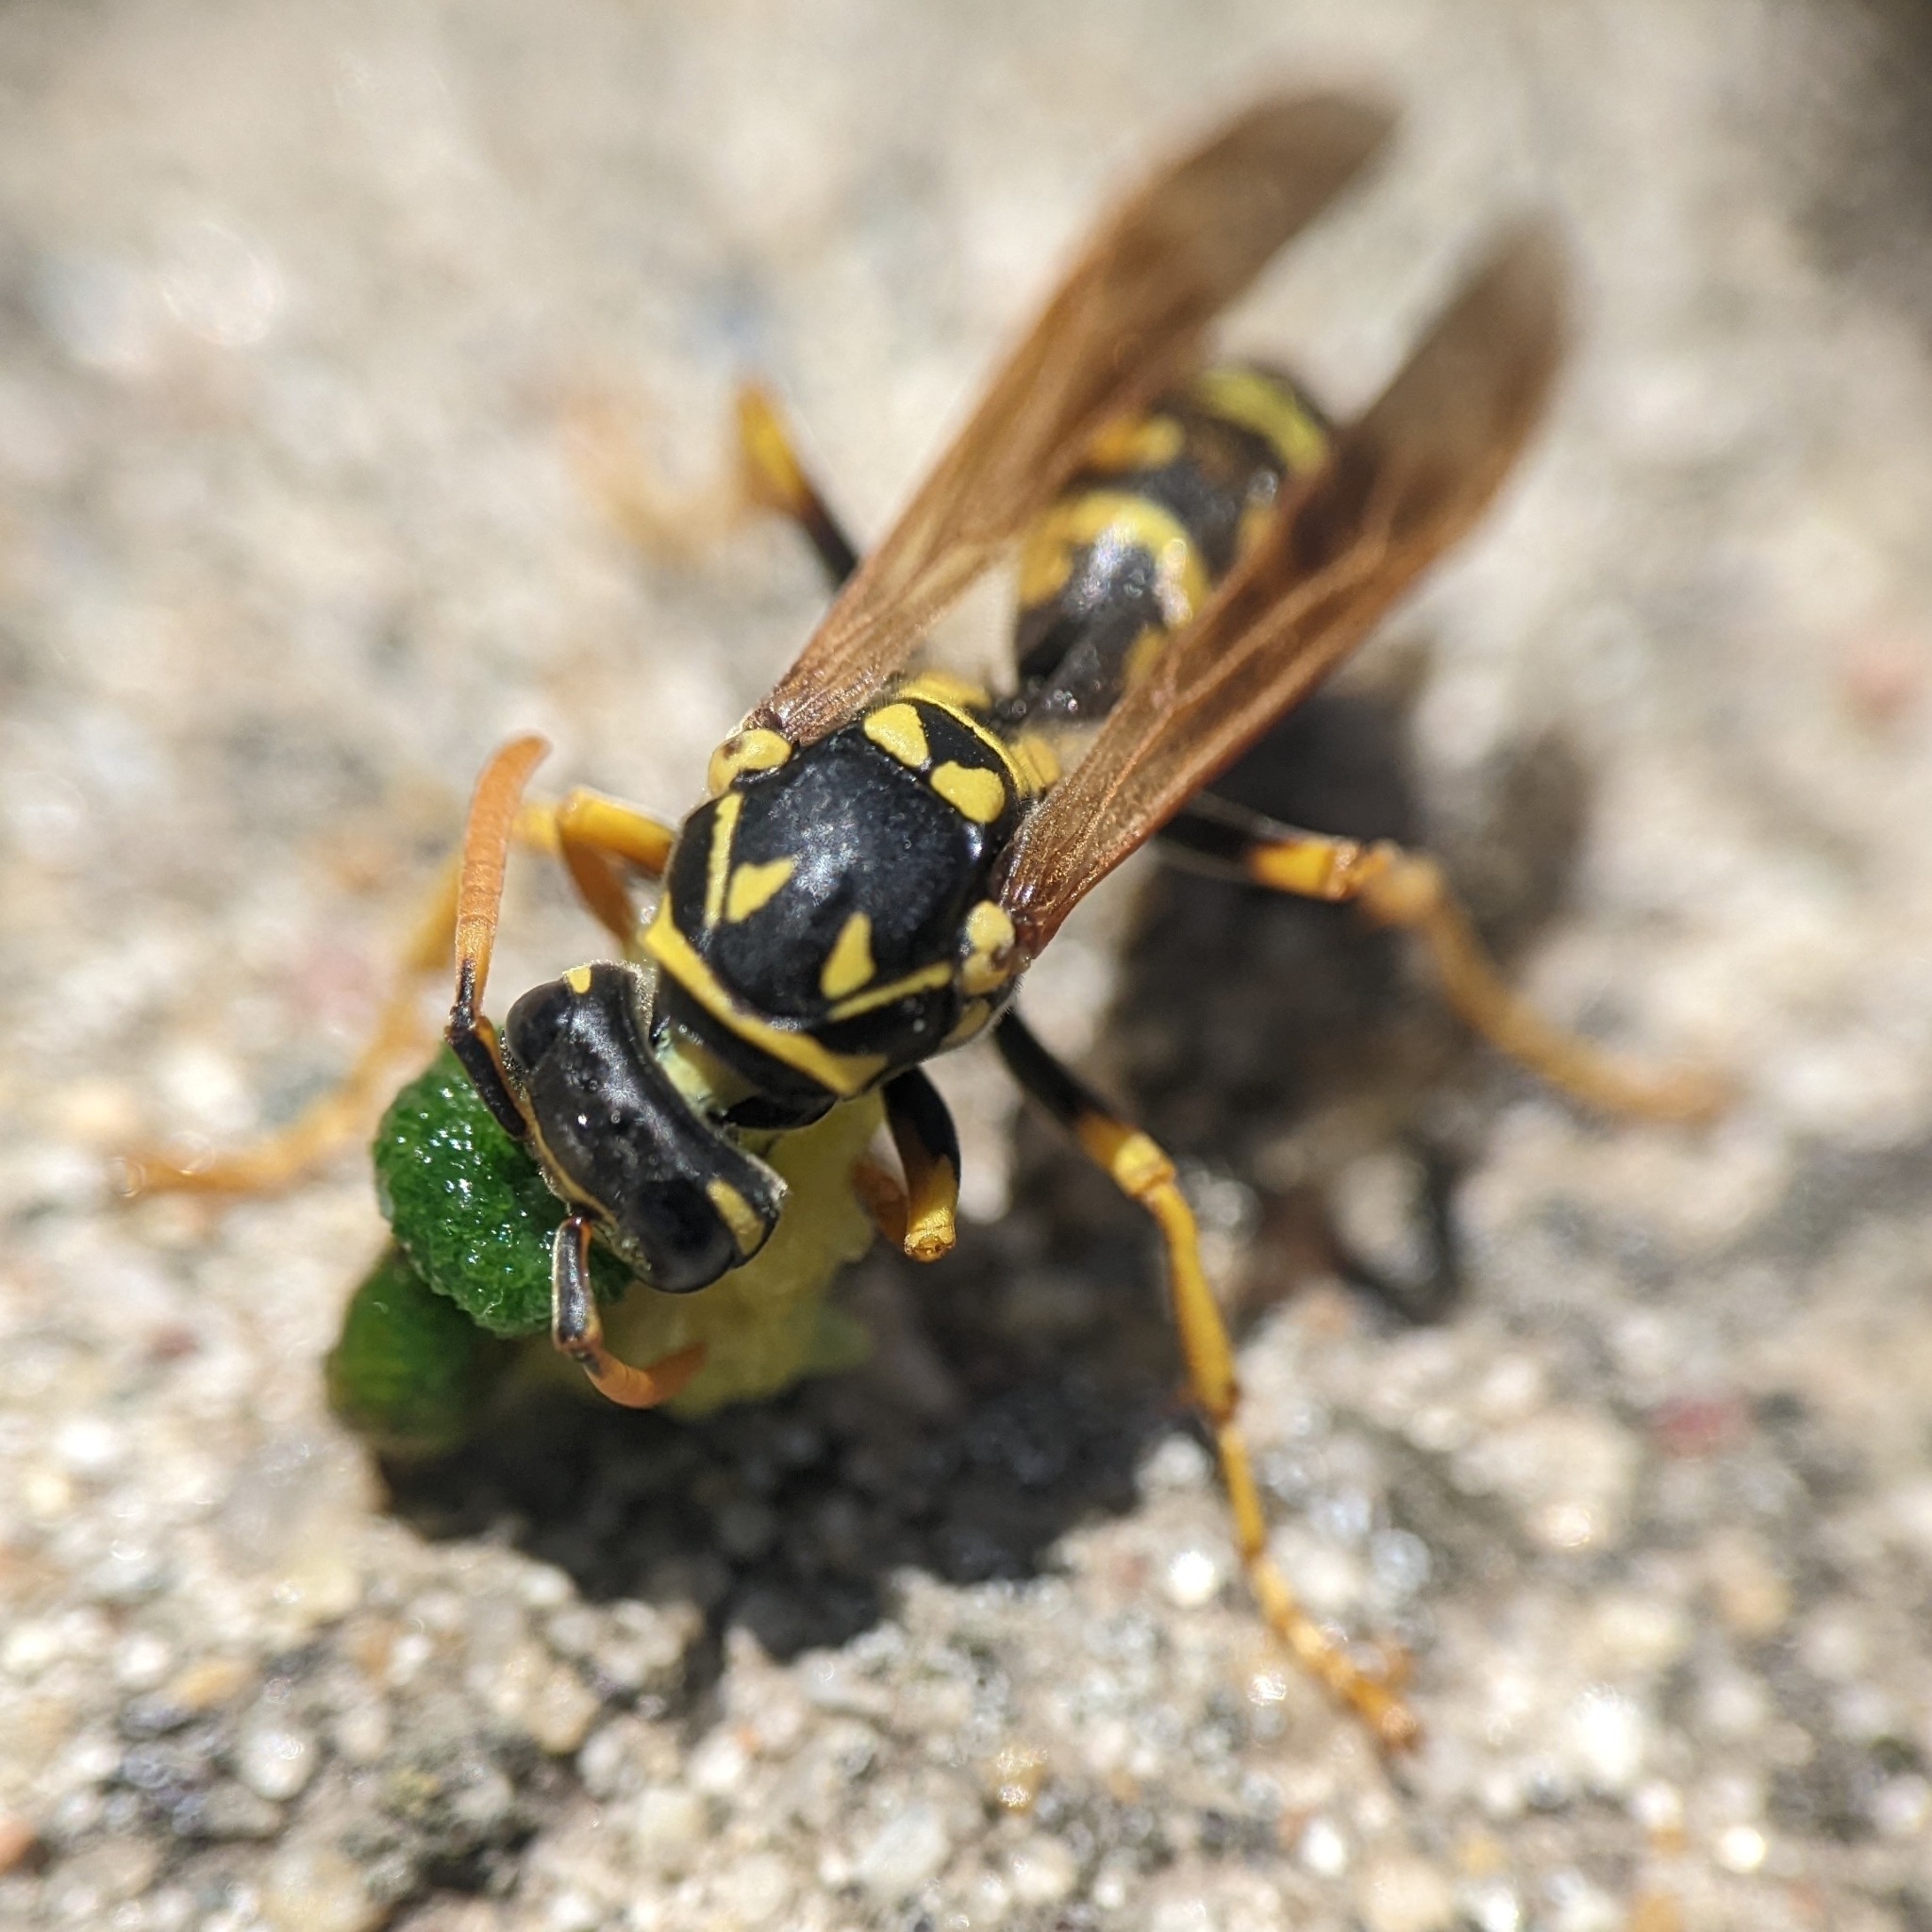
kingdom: Animalia
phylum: Arthropoda
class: Insecta
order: Hymenoptera
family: Eumenidae
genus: Polistes
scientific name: Polistes dominula
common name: Paper wasp
